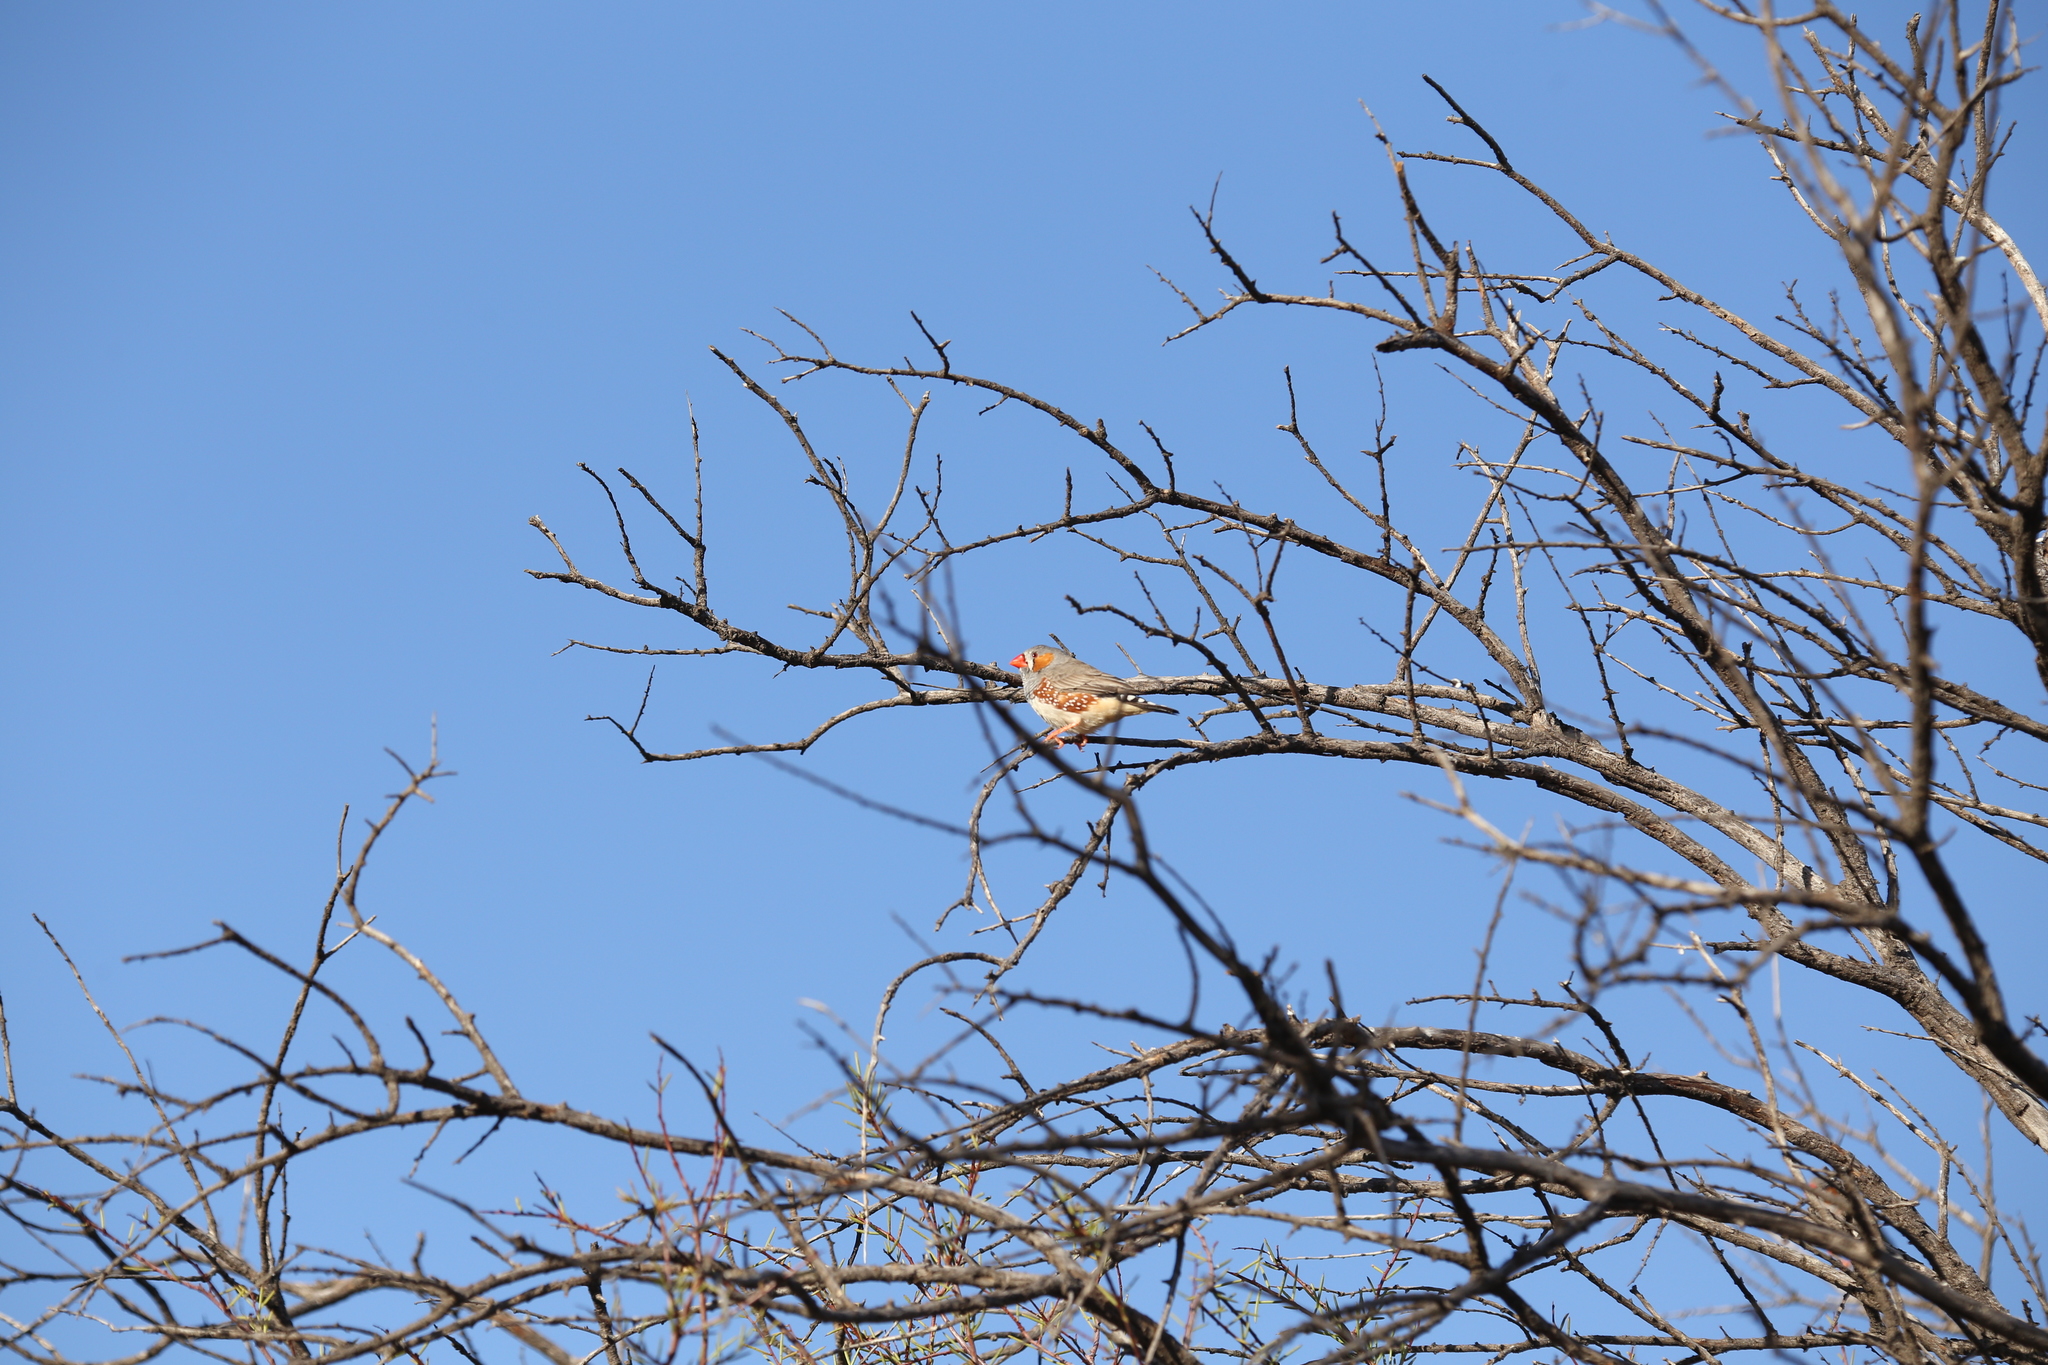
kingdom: Animalia
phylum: Chordata
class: Aves
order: Passeriformes
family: Estrildidae
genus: Taeniopygia
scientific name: Taeniopygia guttata
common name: Zebra finch
